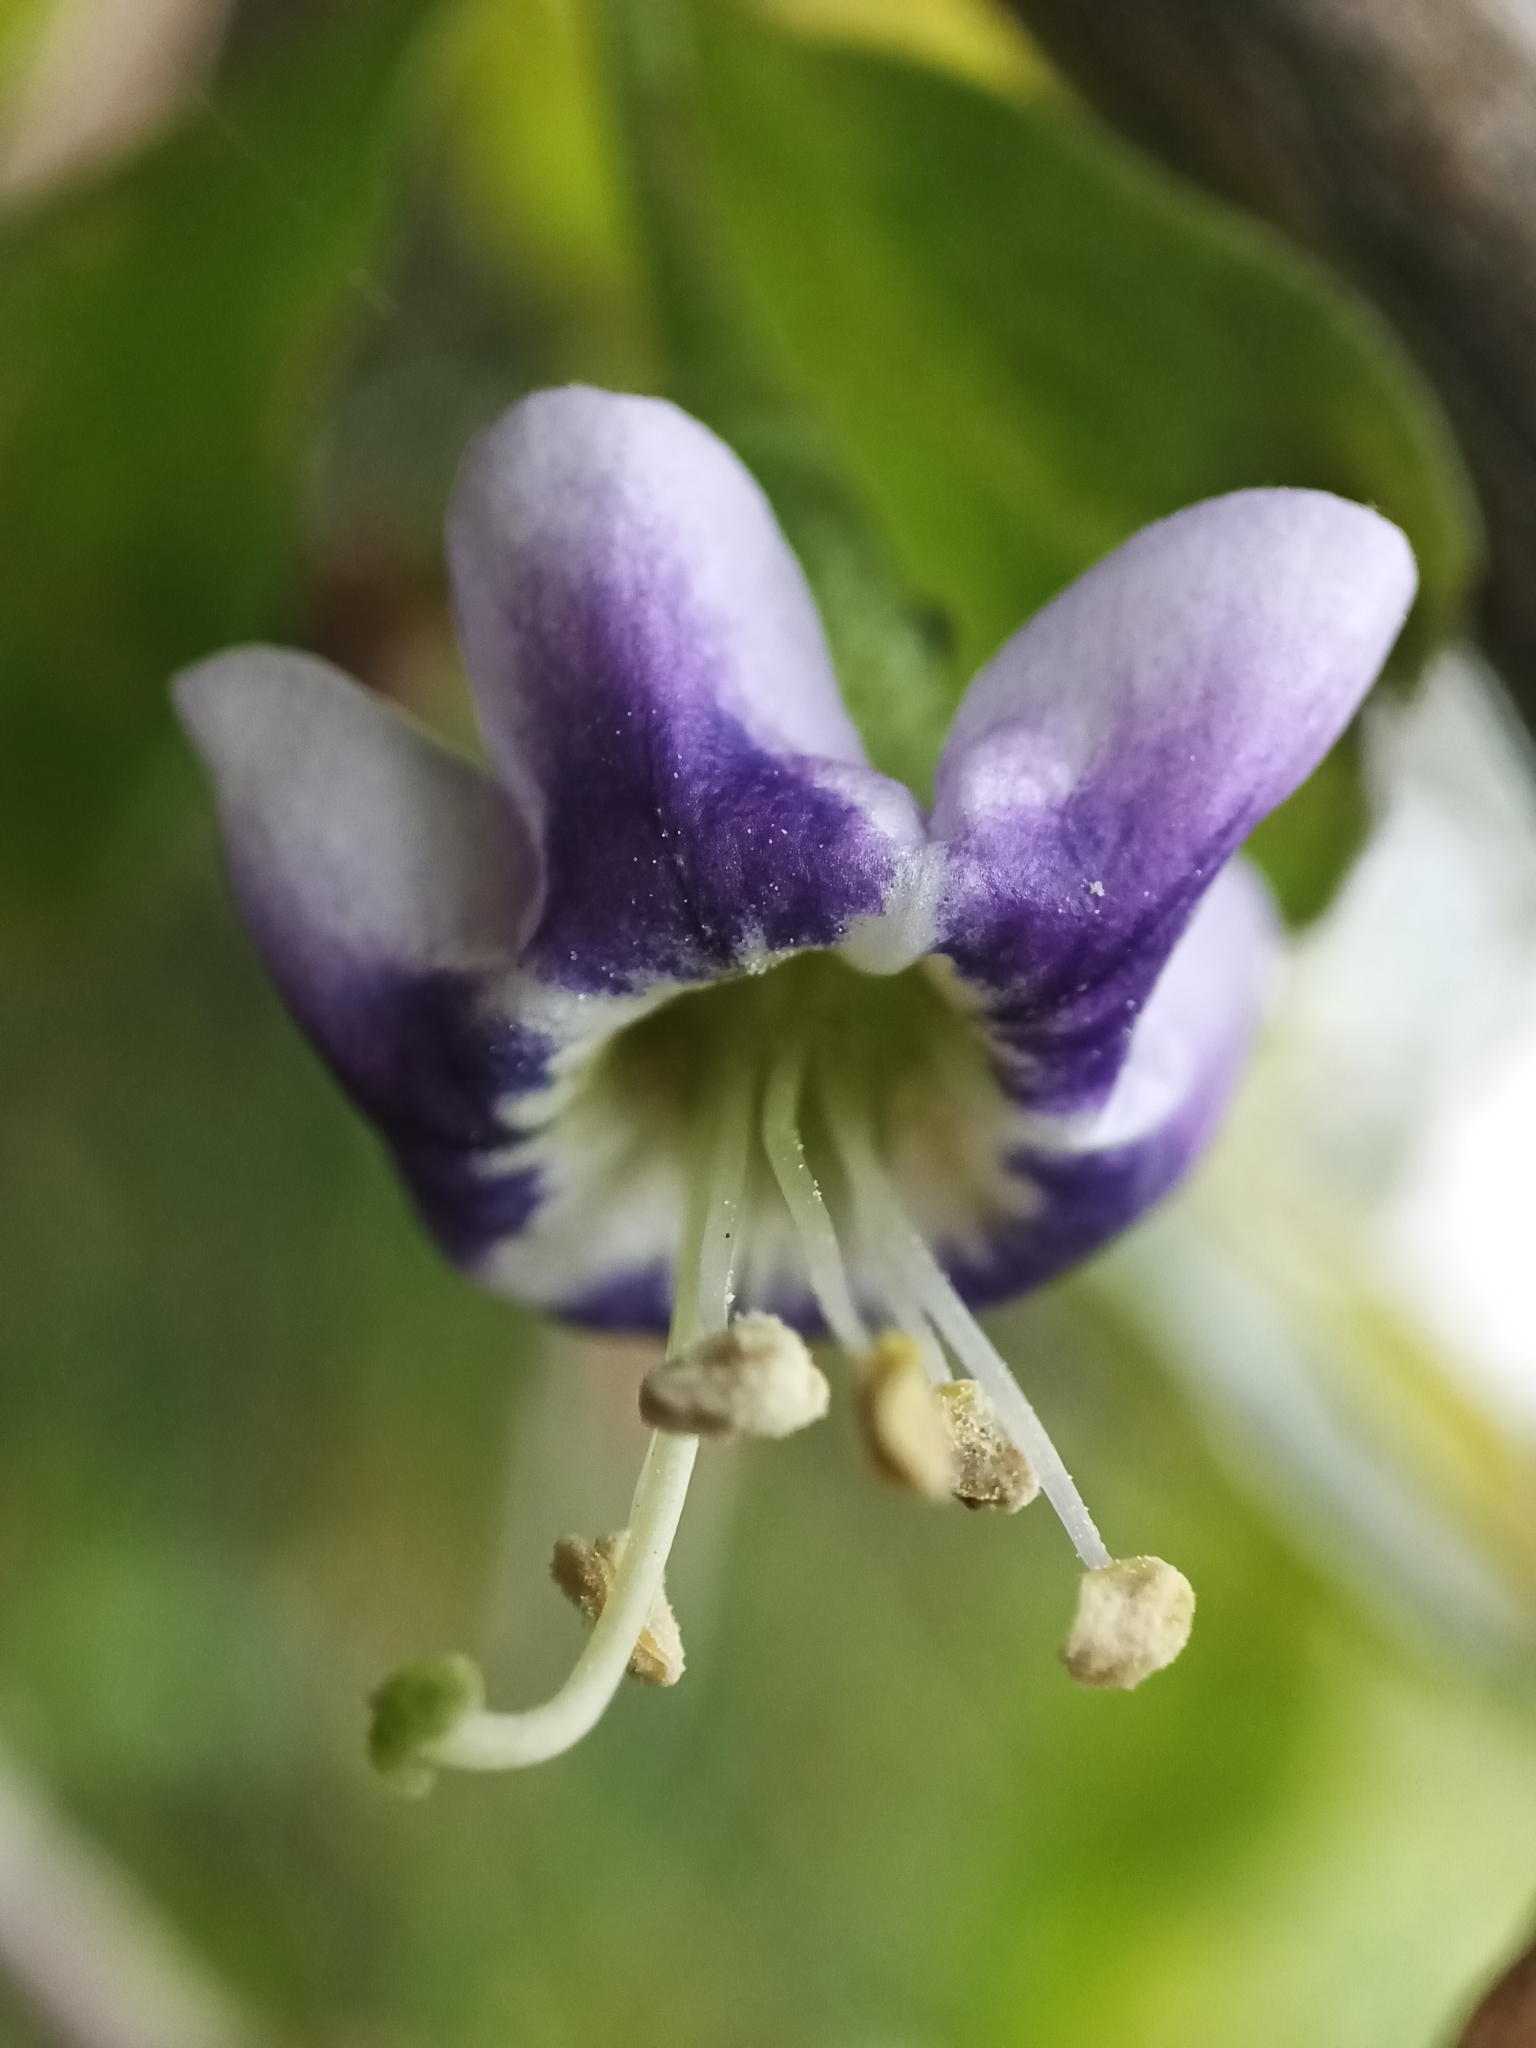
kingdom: Plantae
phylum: Tracheophyta
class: Magnoliopsida
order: Solanales
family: Solanaceae
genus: Lycium
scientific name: Lycium ferocissimum
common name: African boxthorn
